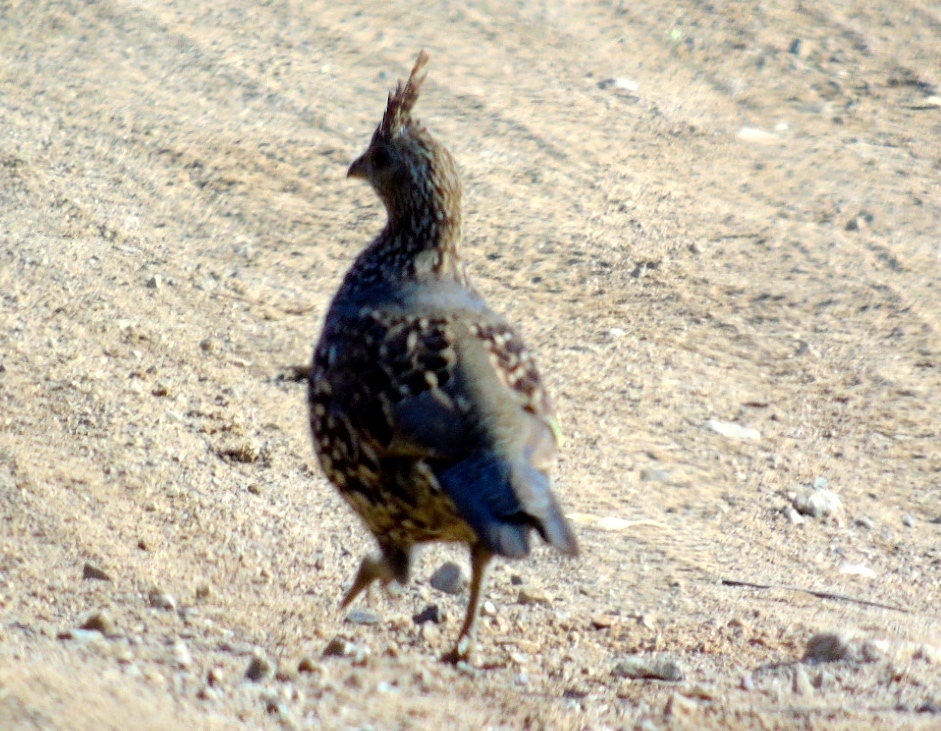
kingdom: Animalia
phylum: Chordata
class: Aves
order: Galliformes
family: Odontophoridae
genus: Callipepla
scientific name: Callipepla douglasii
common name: Elegant quail
